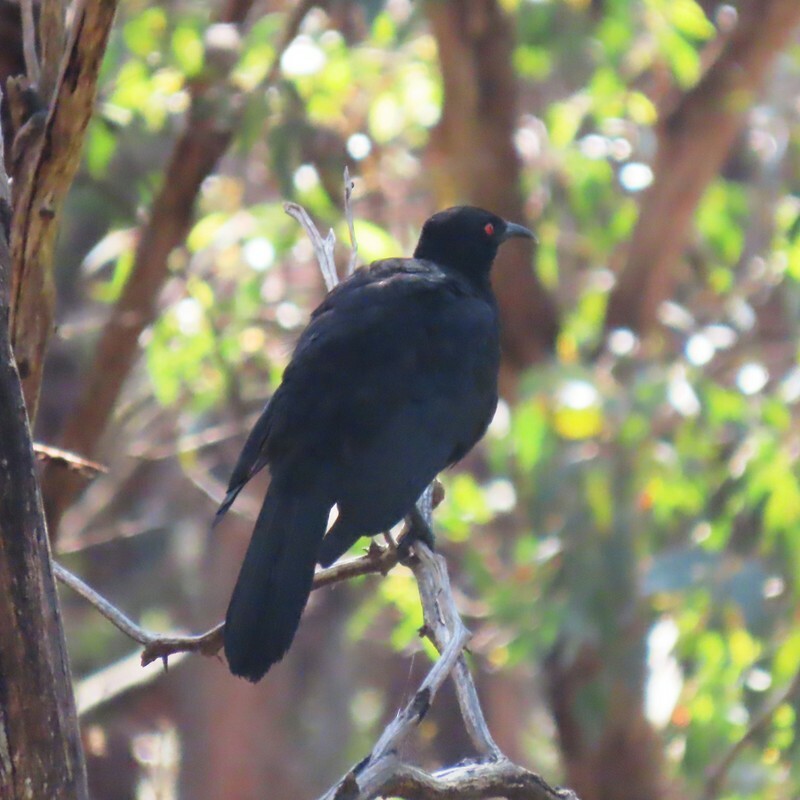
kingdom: Animalia
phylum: Chordata
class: Aves
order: Passeriformes
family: Corcoracidae
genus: Corcorax
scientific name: Corcorax melanoramphos
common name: White-winged chough
